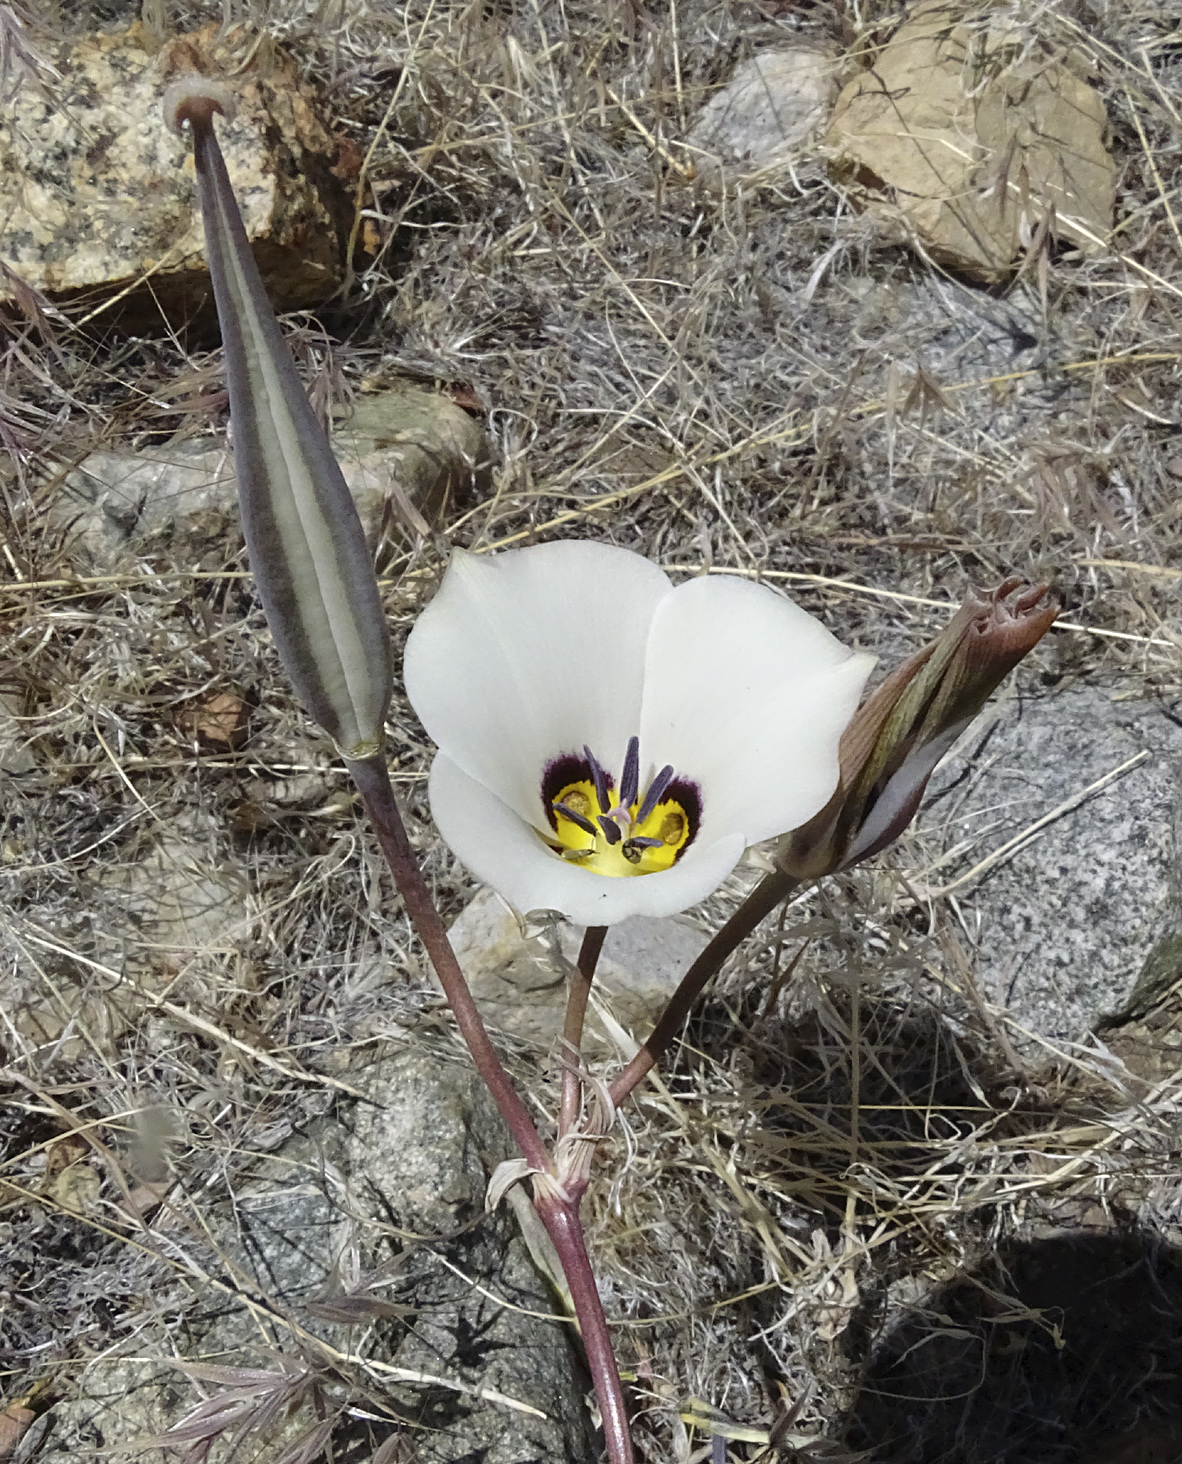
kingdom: Plantae
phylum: Tracheophyta
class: Liliopsida
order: Liliales
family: Liliaceae
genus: Calochortus
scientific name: Calochortus bruneaunis
